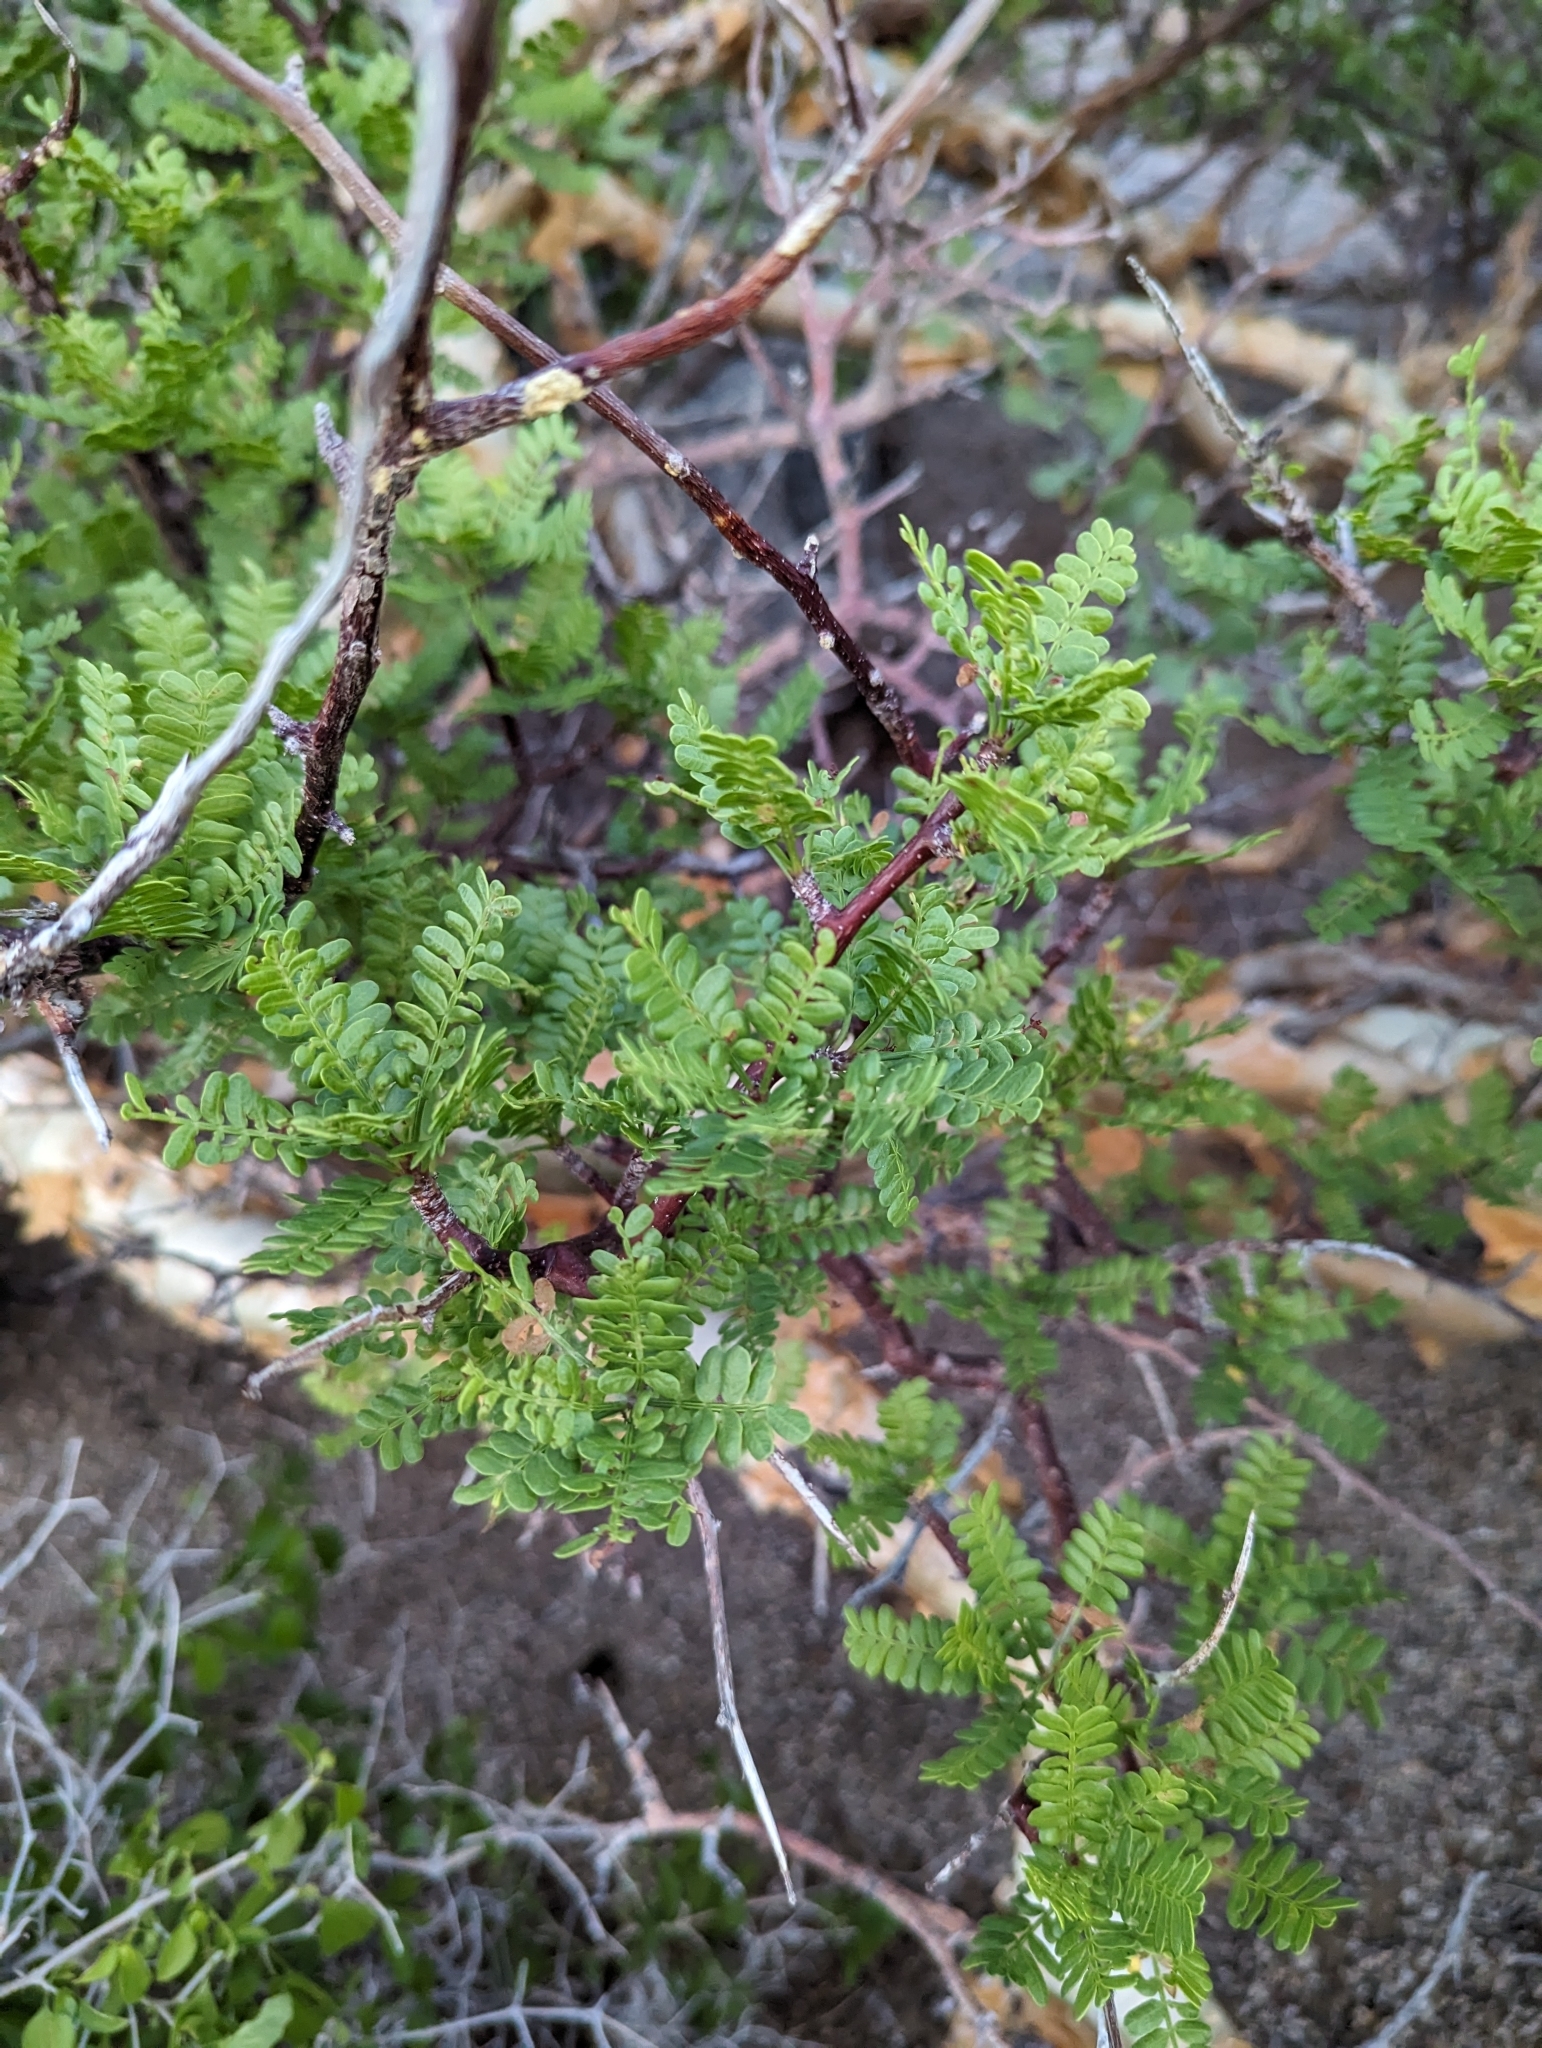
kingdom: Plantae
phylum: Tracheophyta
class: Magnoliopsida
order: Sapindales
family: Burseraceae
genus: Bursera
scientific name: Bursera microphylla
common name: Elephant tree
